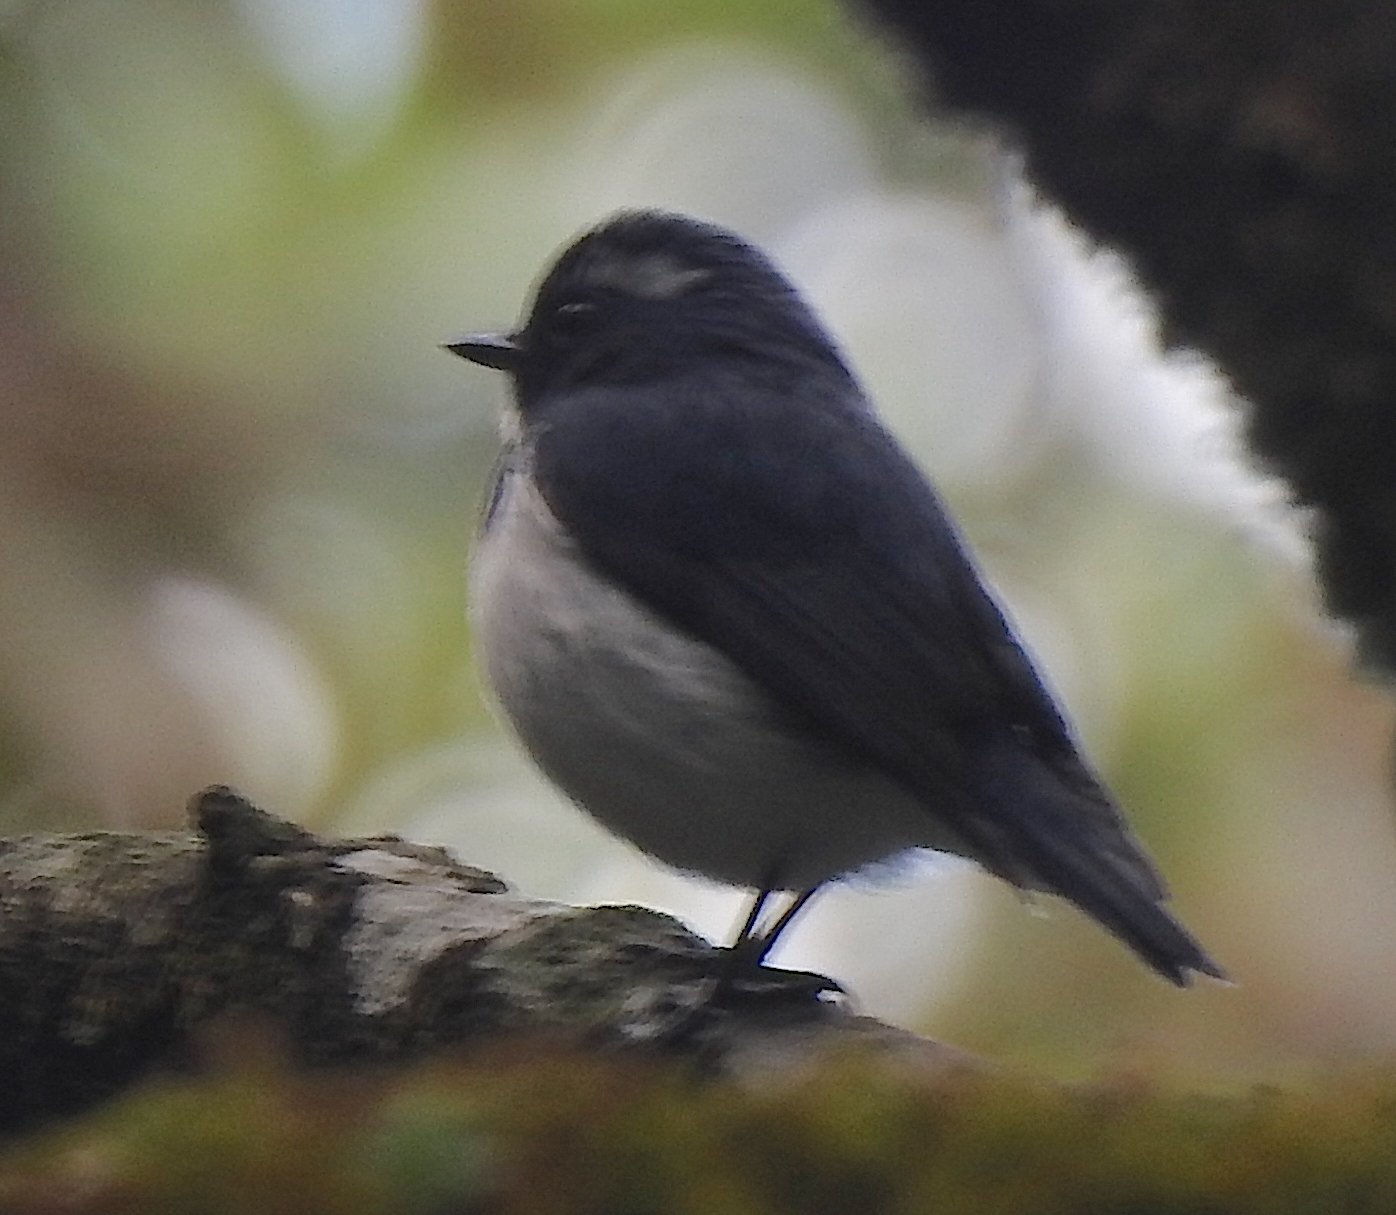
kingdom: Animalia
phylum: Chordata
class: Aves
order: Passeriformes
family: Muscicapidae
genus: Ficedula
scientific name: Ficedula superciliaris
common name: Ultramarine flycatcher
